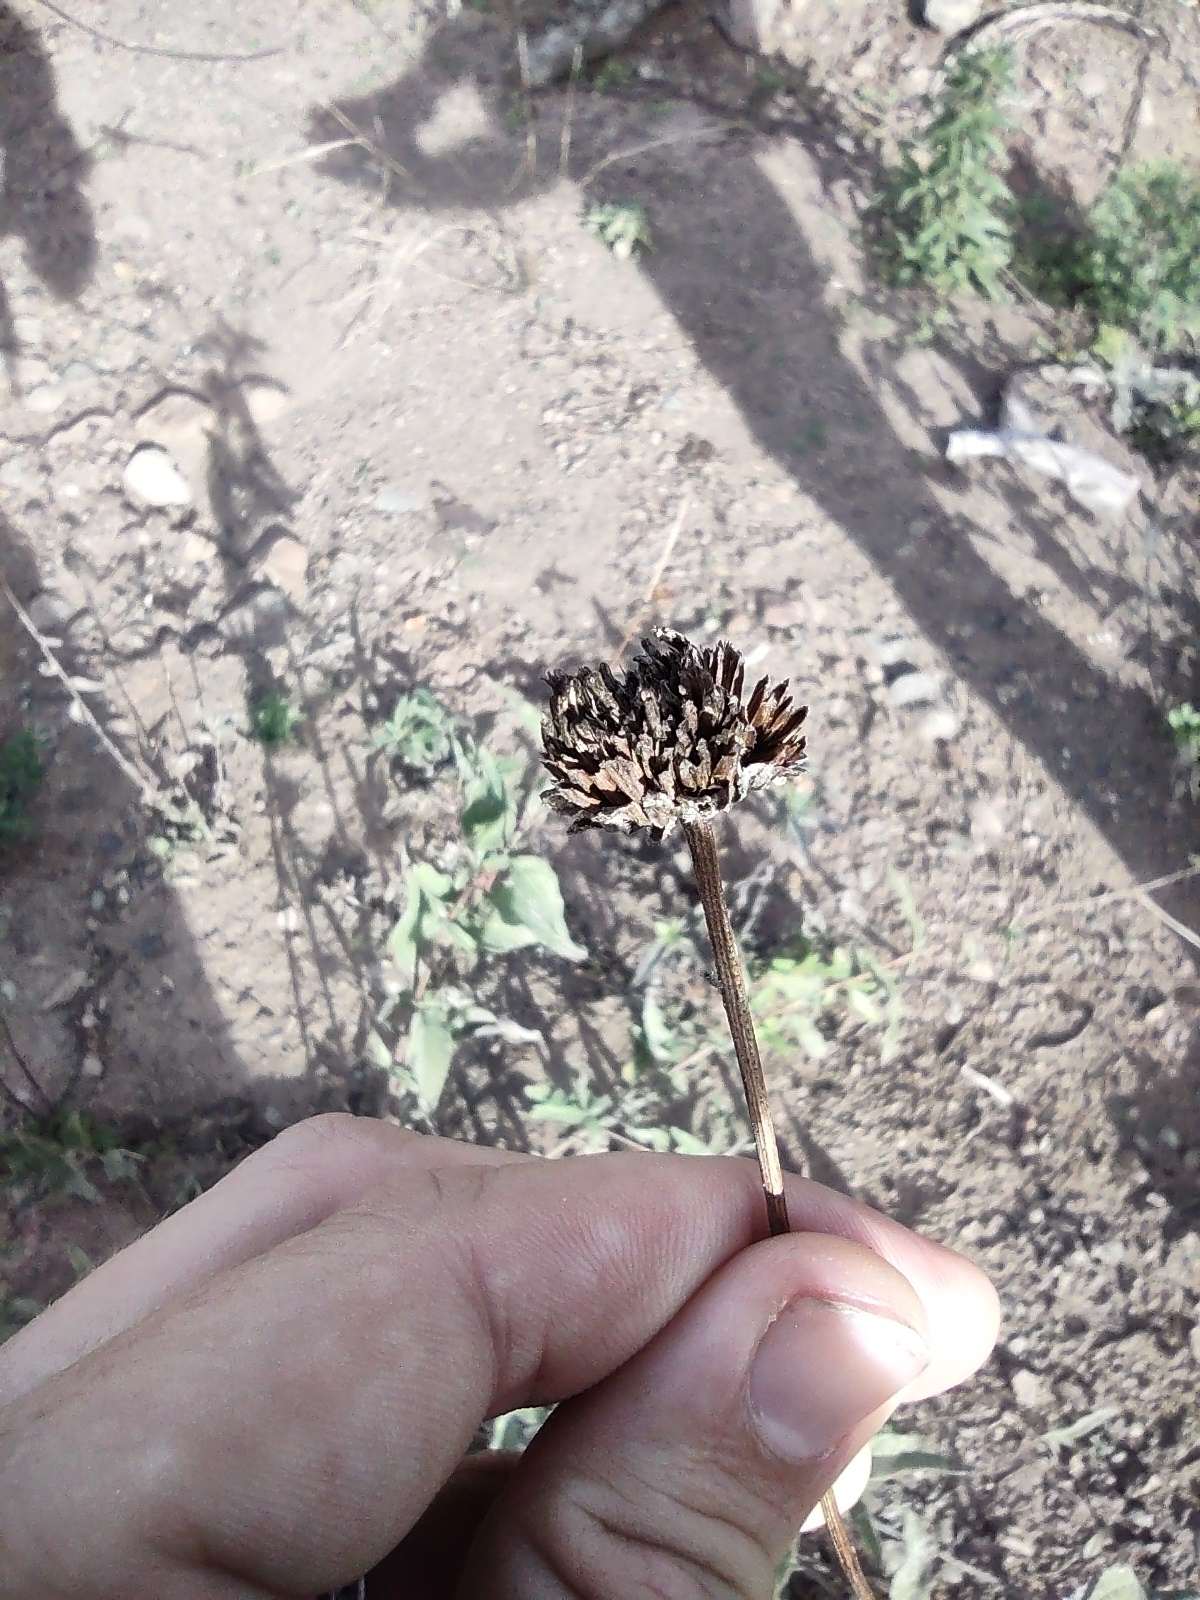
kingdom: Plantae
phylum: Tracheophyta
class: Magnoliopsida
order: Asterales
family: Asteraceae
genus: Helianthus
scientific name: Helianthus gracilentus
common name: Slender sunflower
